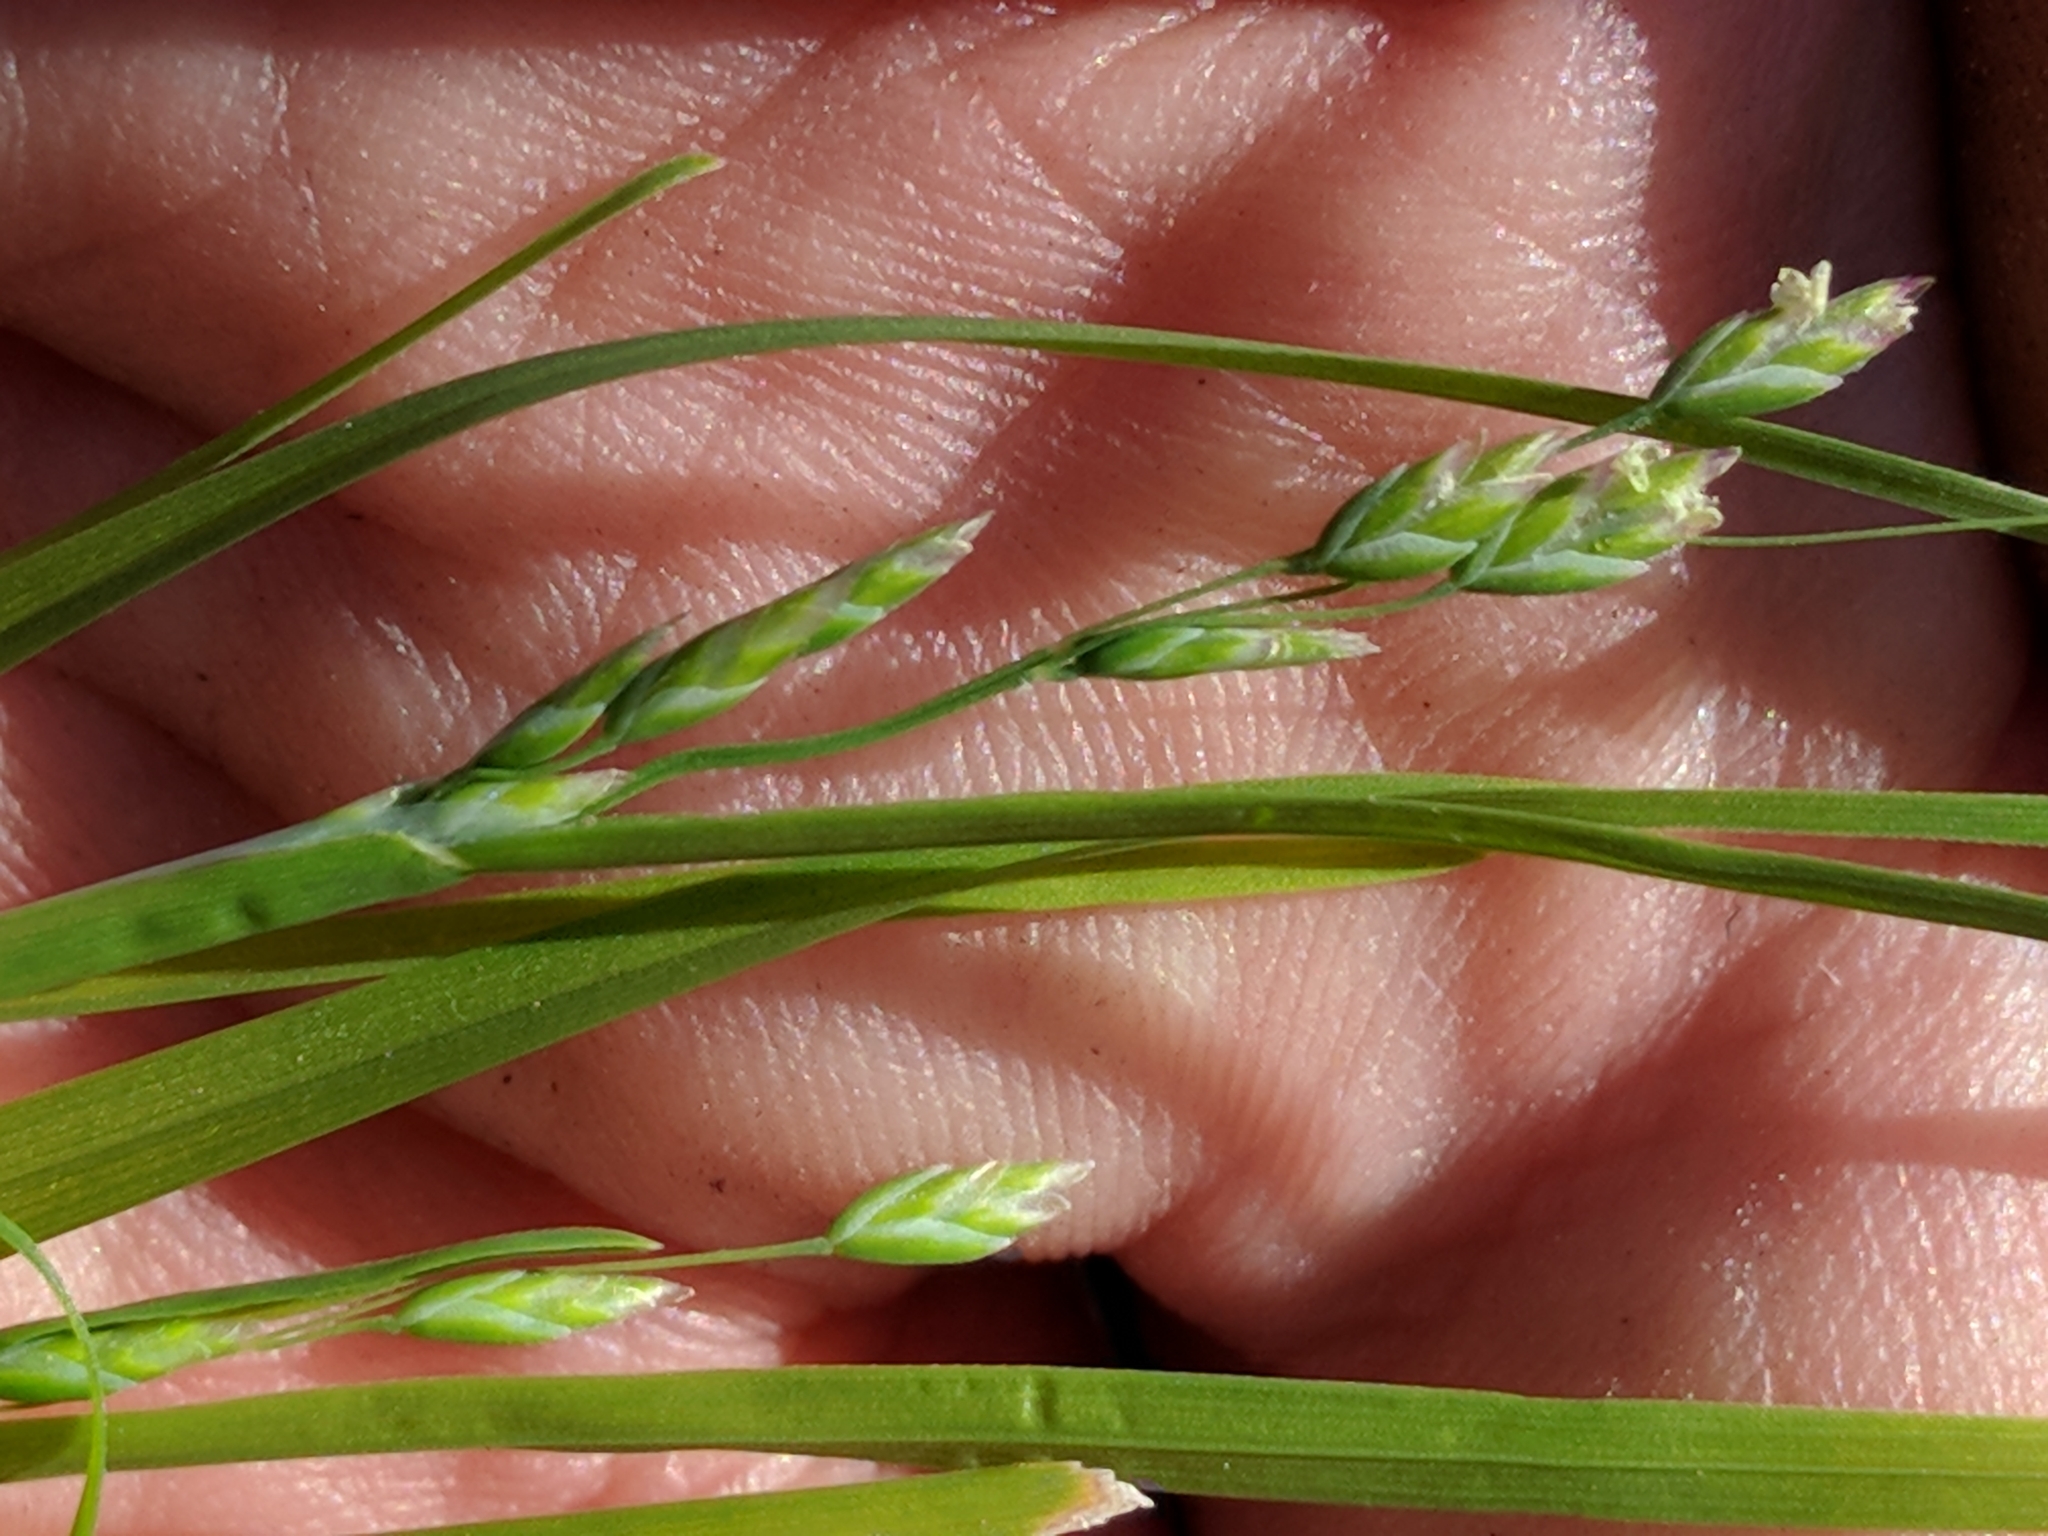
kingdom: Plantae
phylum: Tracheophyta
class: Liliopsida
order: Poales
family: Poaceae
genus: Poa
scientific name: Poa annua
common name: Annual bluegrass
